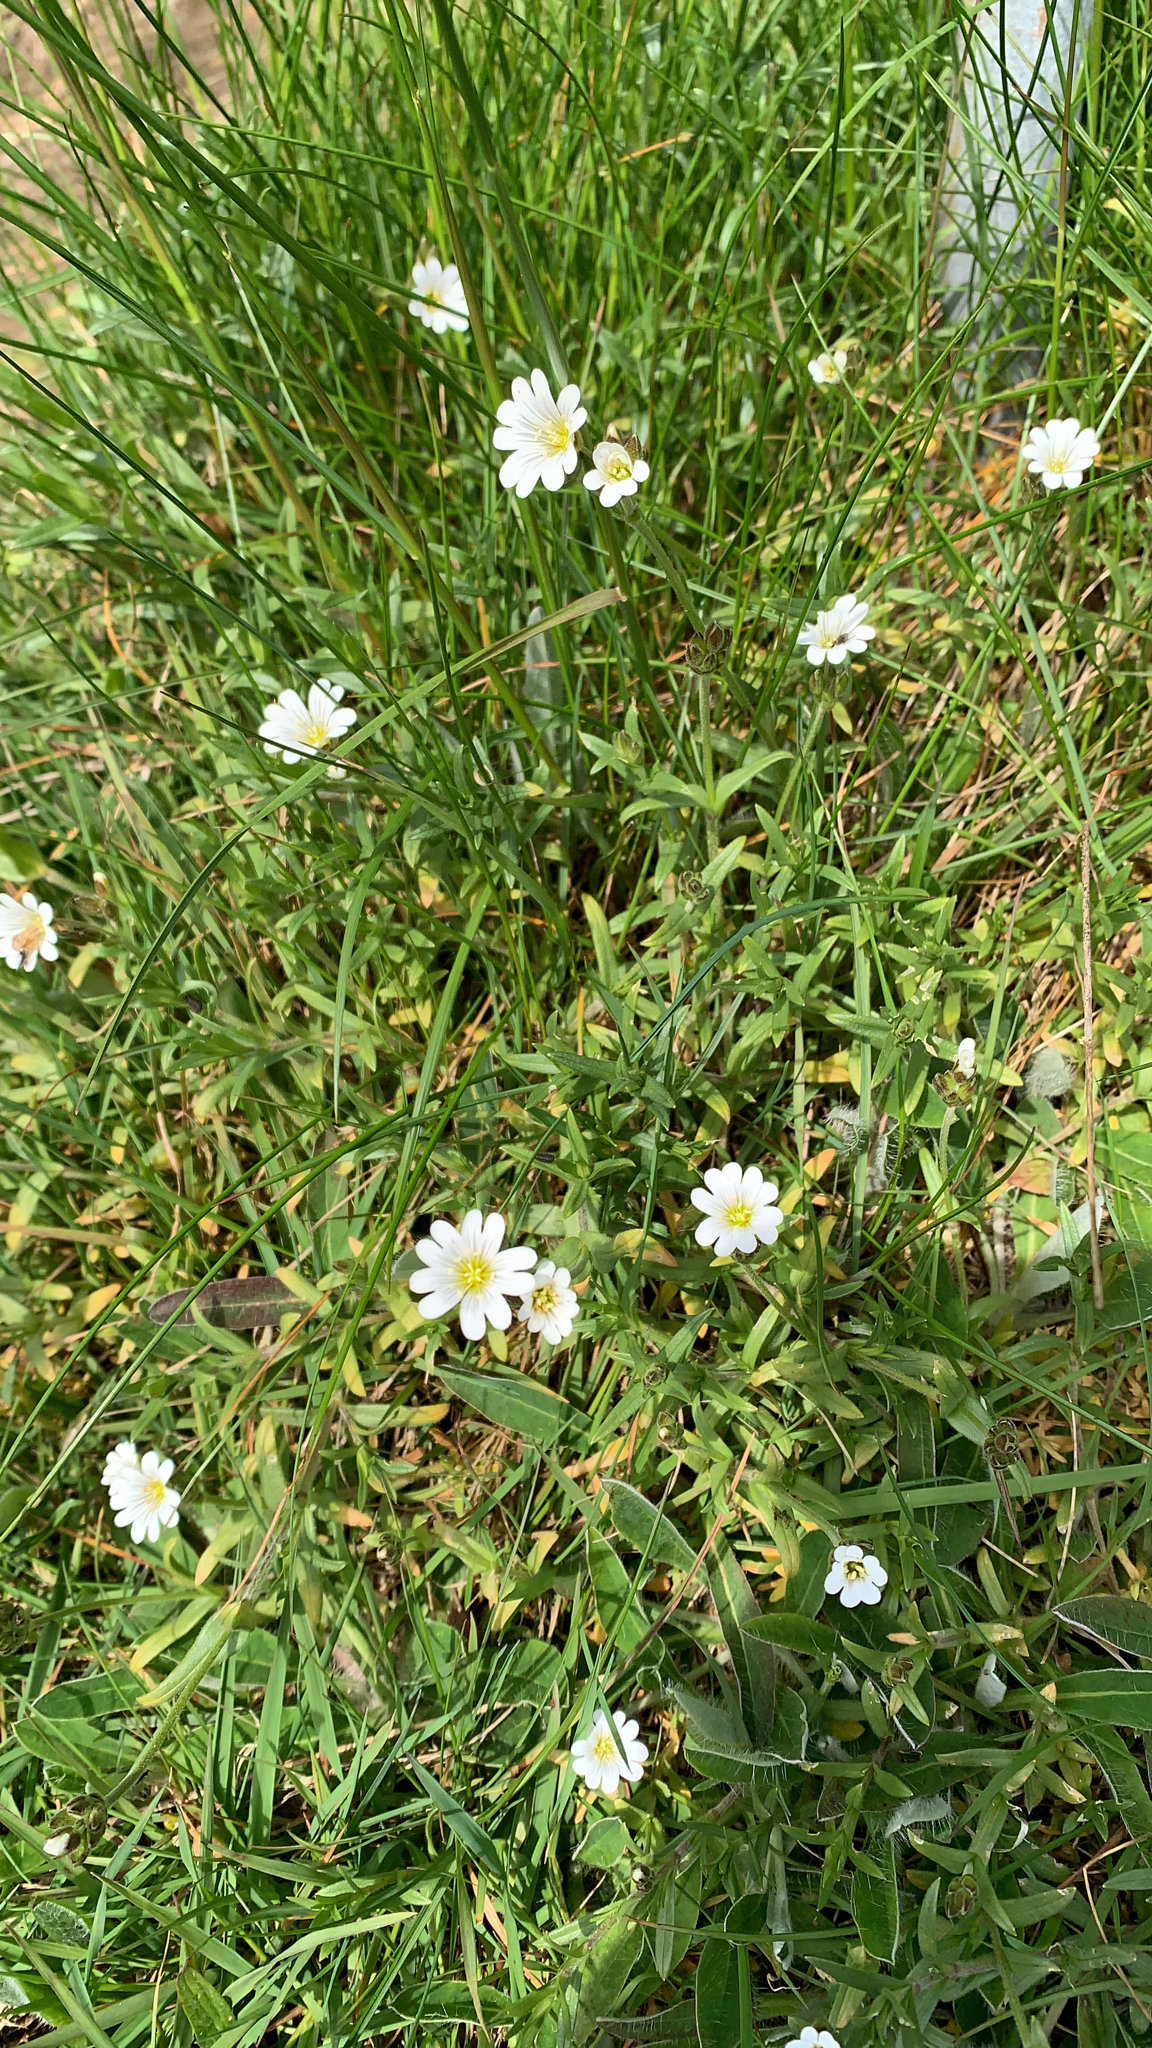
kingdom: Plantae
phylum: Tracheophyta
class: Magnoliopsida
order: Caryophyllales
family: Caryophyllaceae
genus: Cerastium
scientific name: Cerastium arvense
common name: Field mouse-ear
